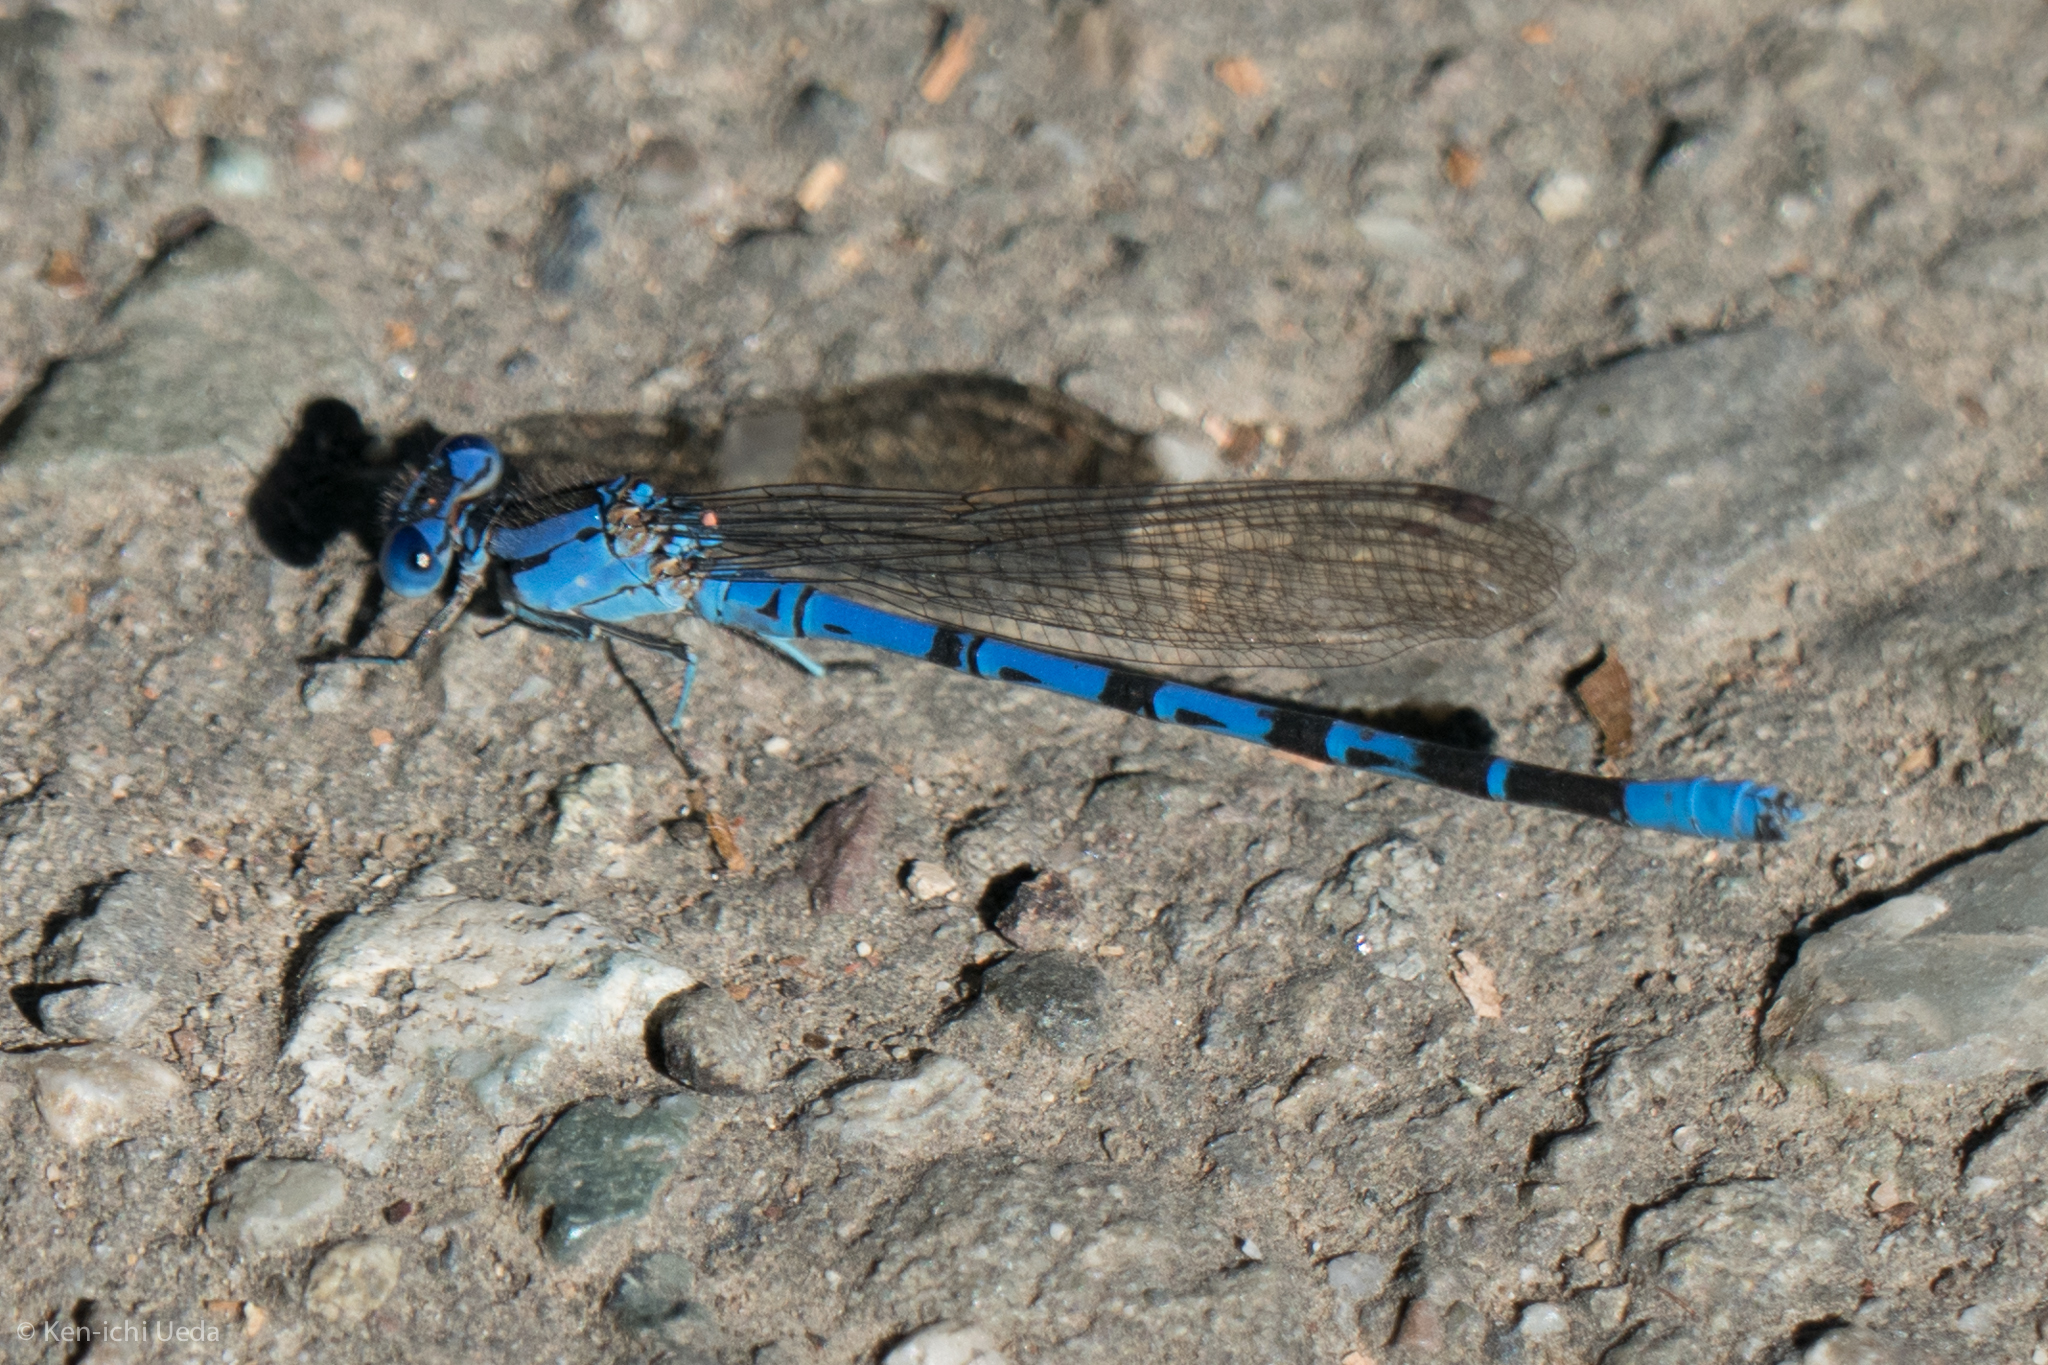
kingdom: Animalia
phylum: Arthropoda
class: Insecta
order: Odonata
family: Coenagrionidae
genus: Argia
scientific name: Argia vivida
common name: Vivid dancer
